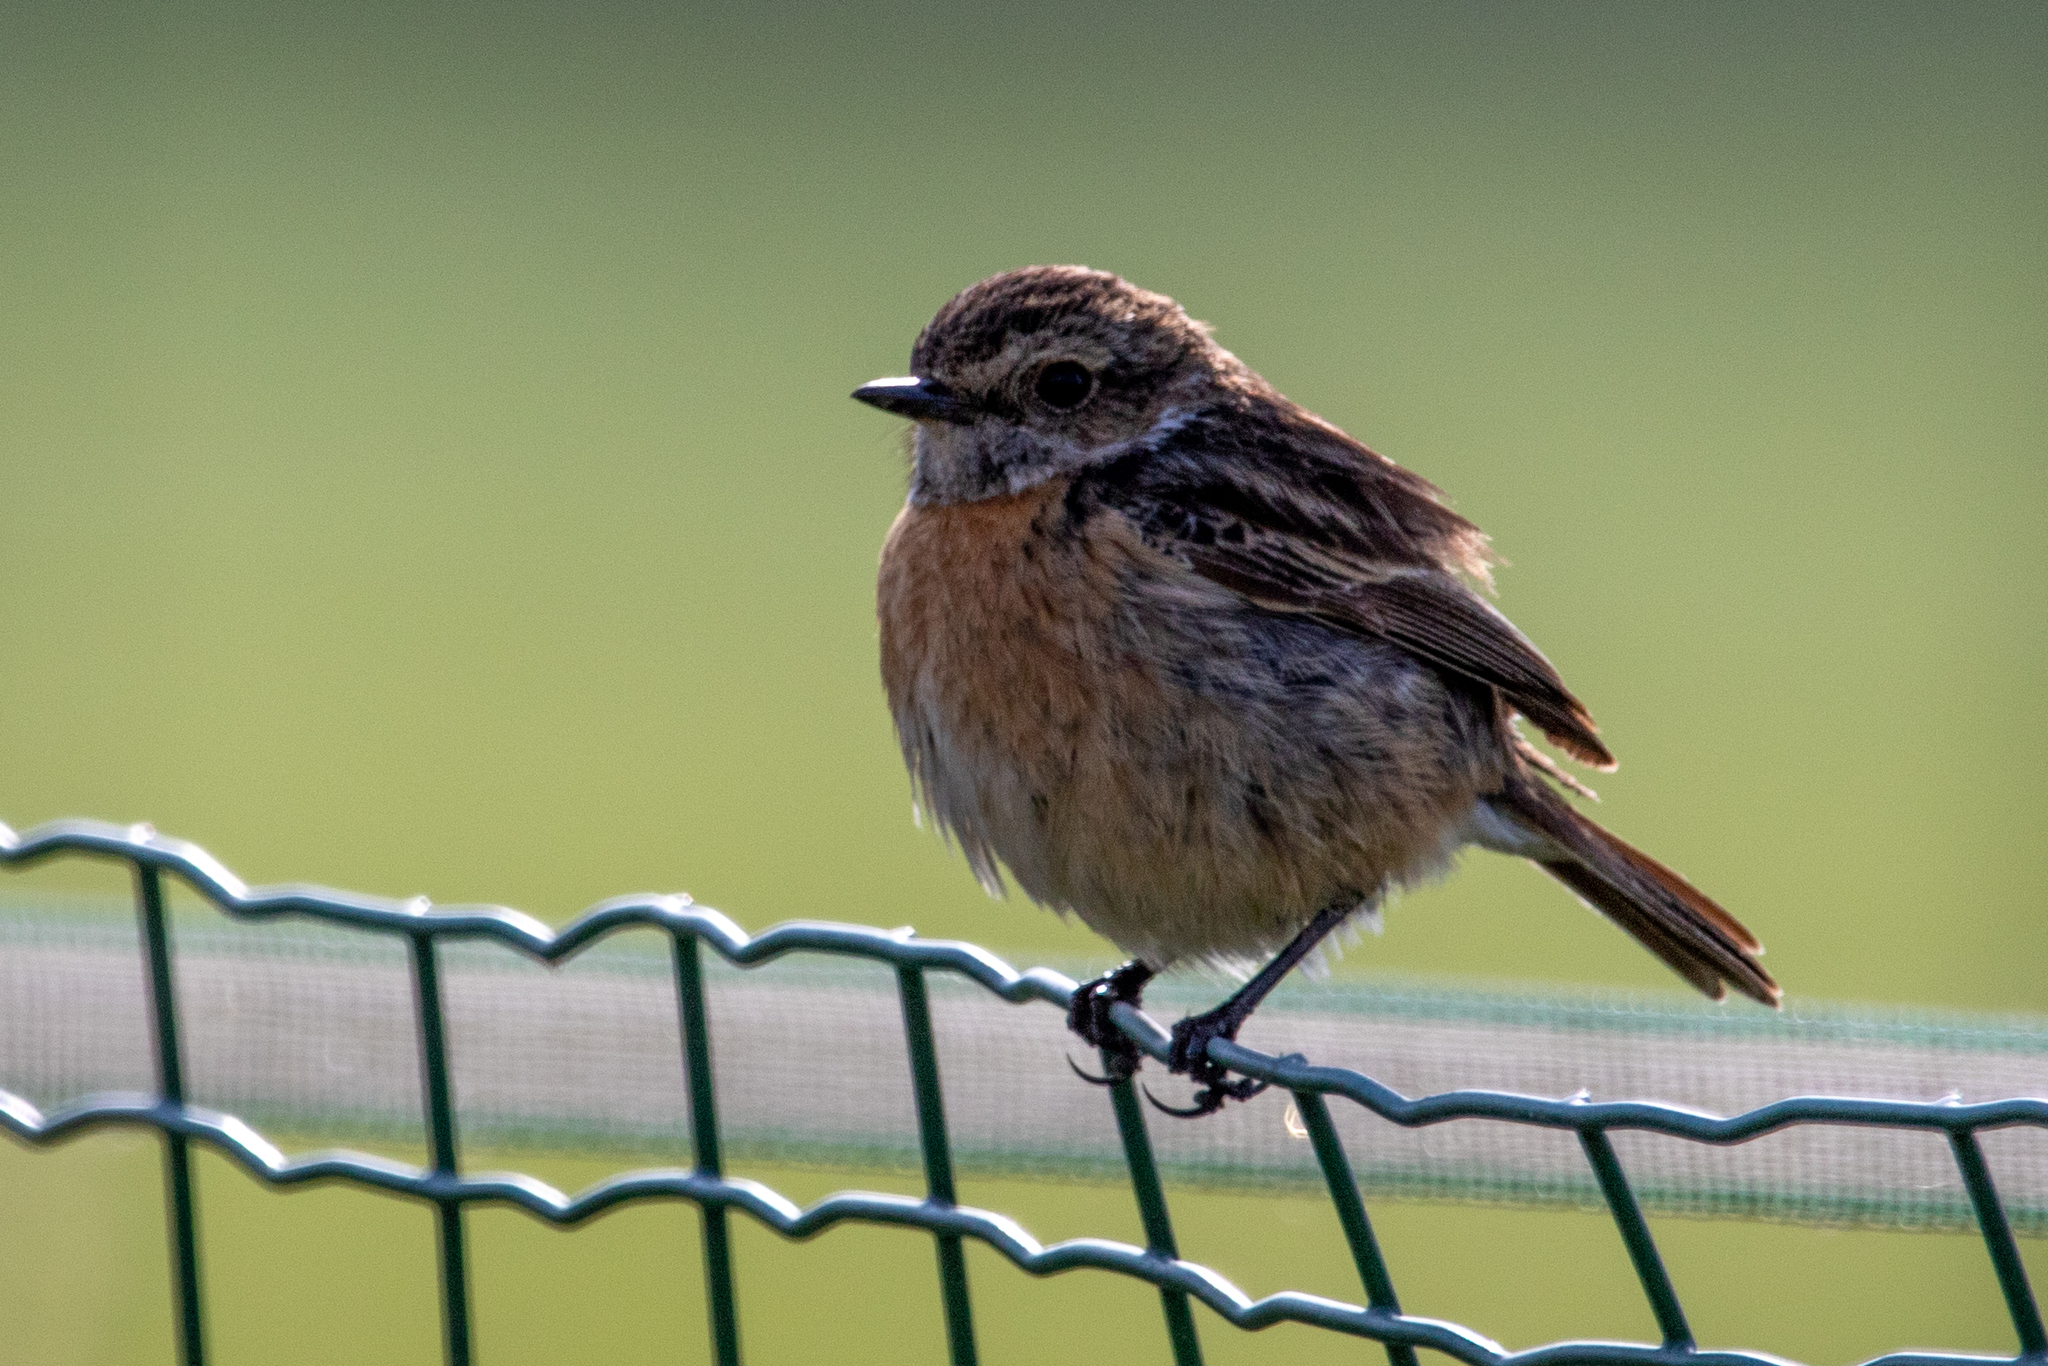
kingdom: Animalia
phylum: Chordata
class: Aves
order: Passeriformes
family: Muscicapidae
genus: Saxicola
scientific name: Saxicola rubicola
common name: European stonechat
